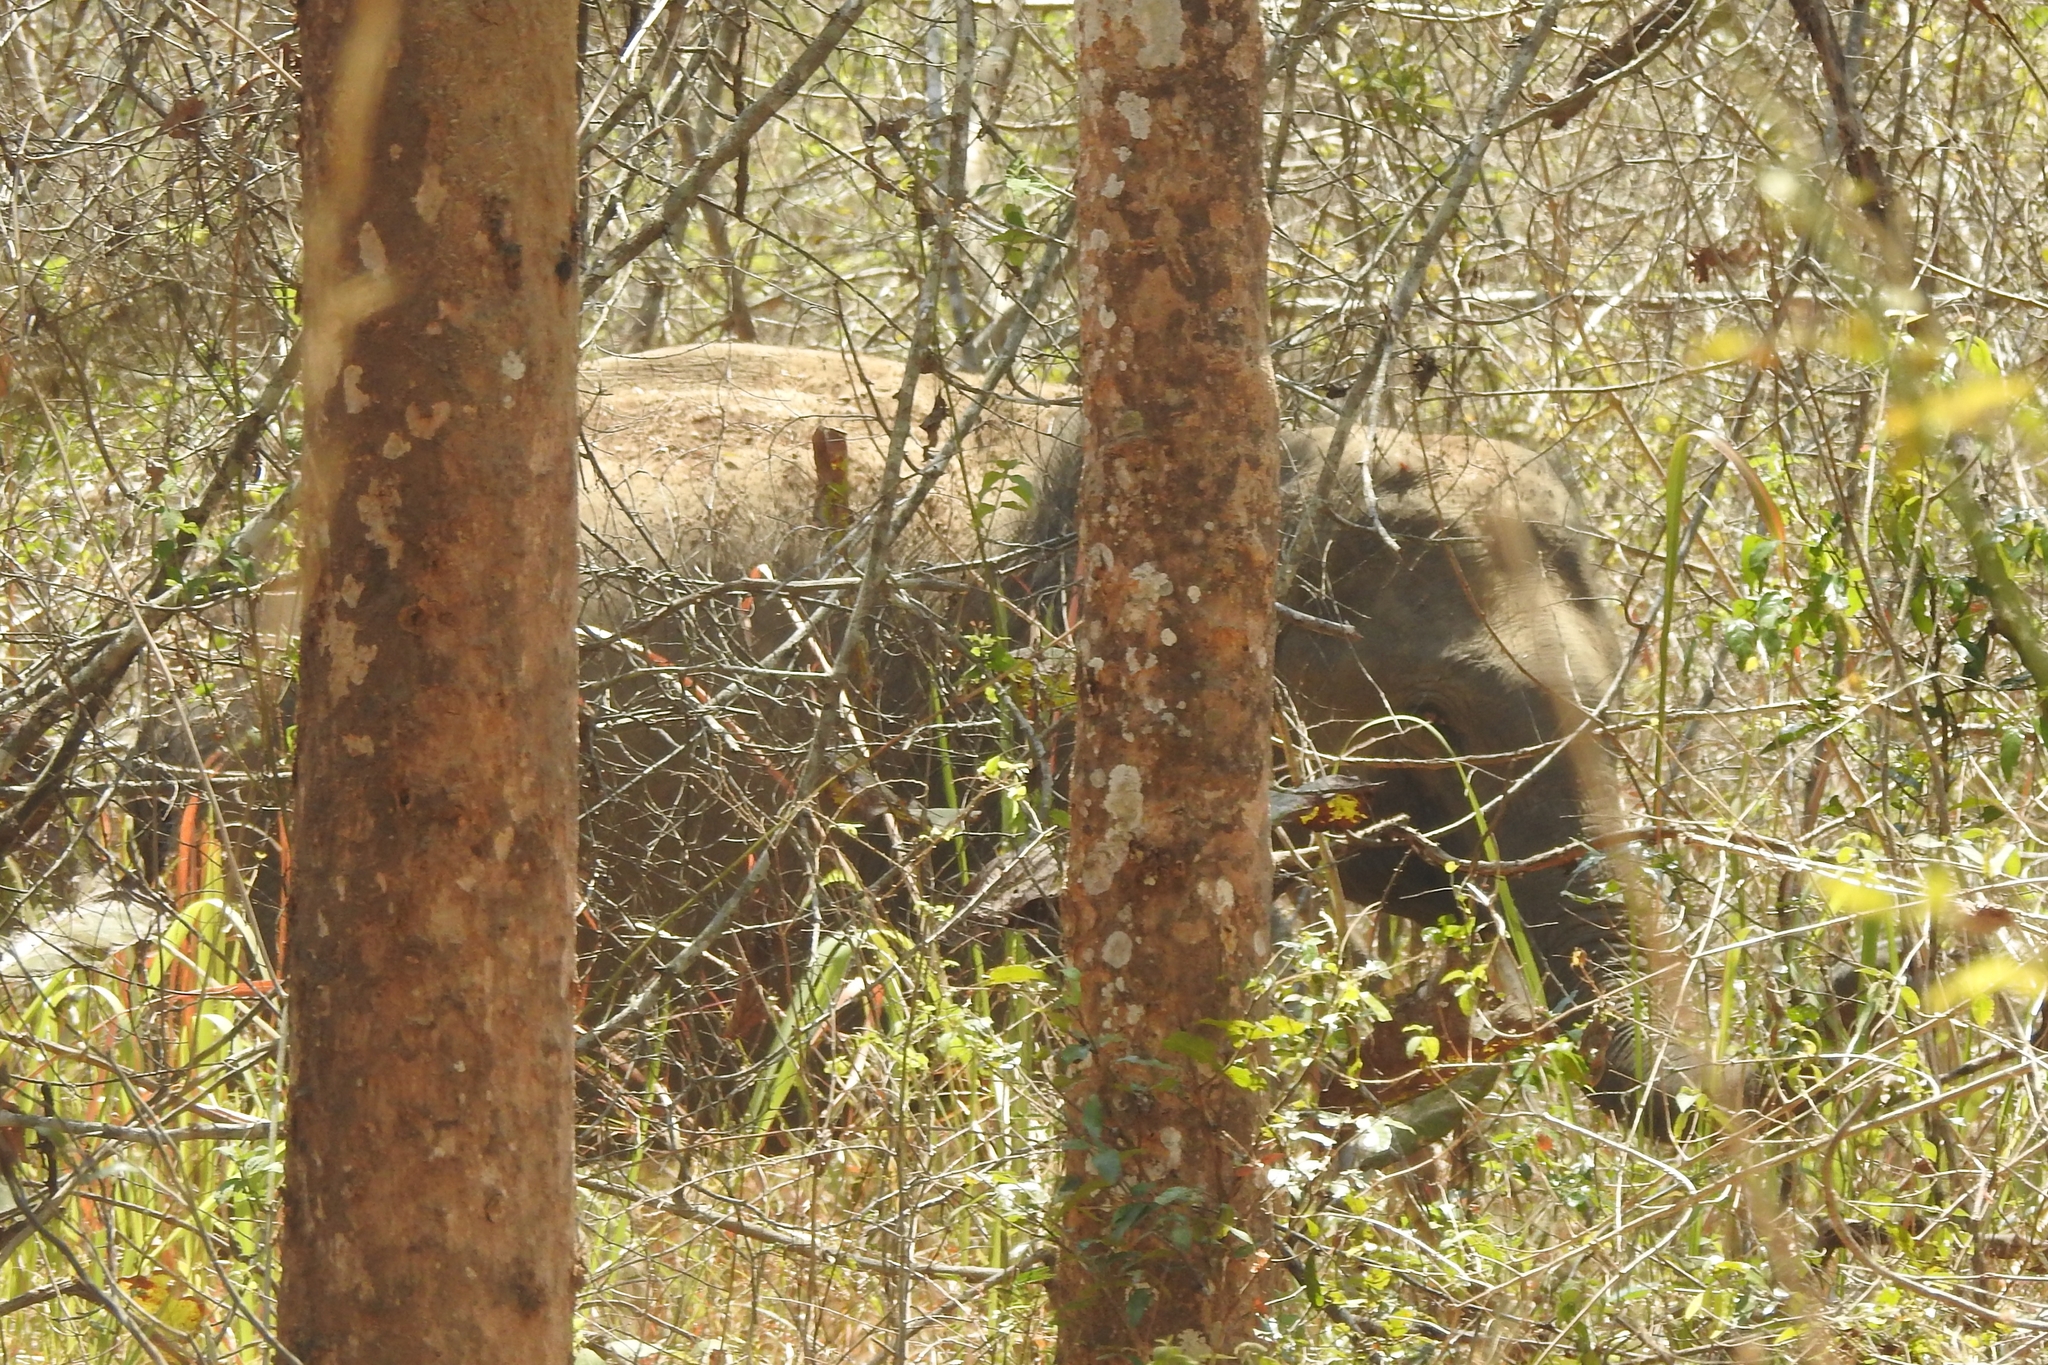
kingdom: Animalia
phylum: Chordata
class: Mammalia
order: Proboscidea
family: Elephantidae
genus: Elephas
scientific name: Elephas maximus
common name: Asian elephant
